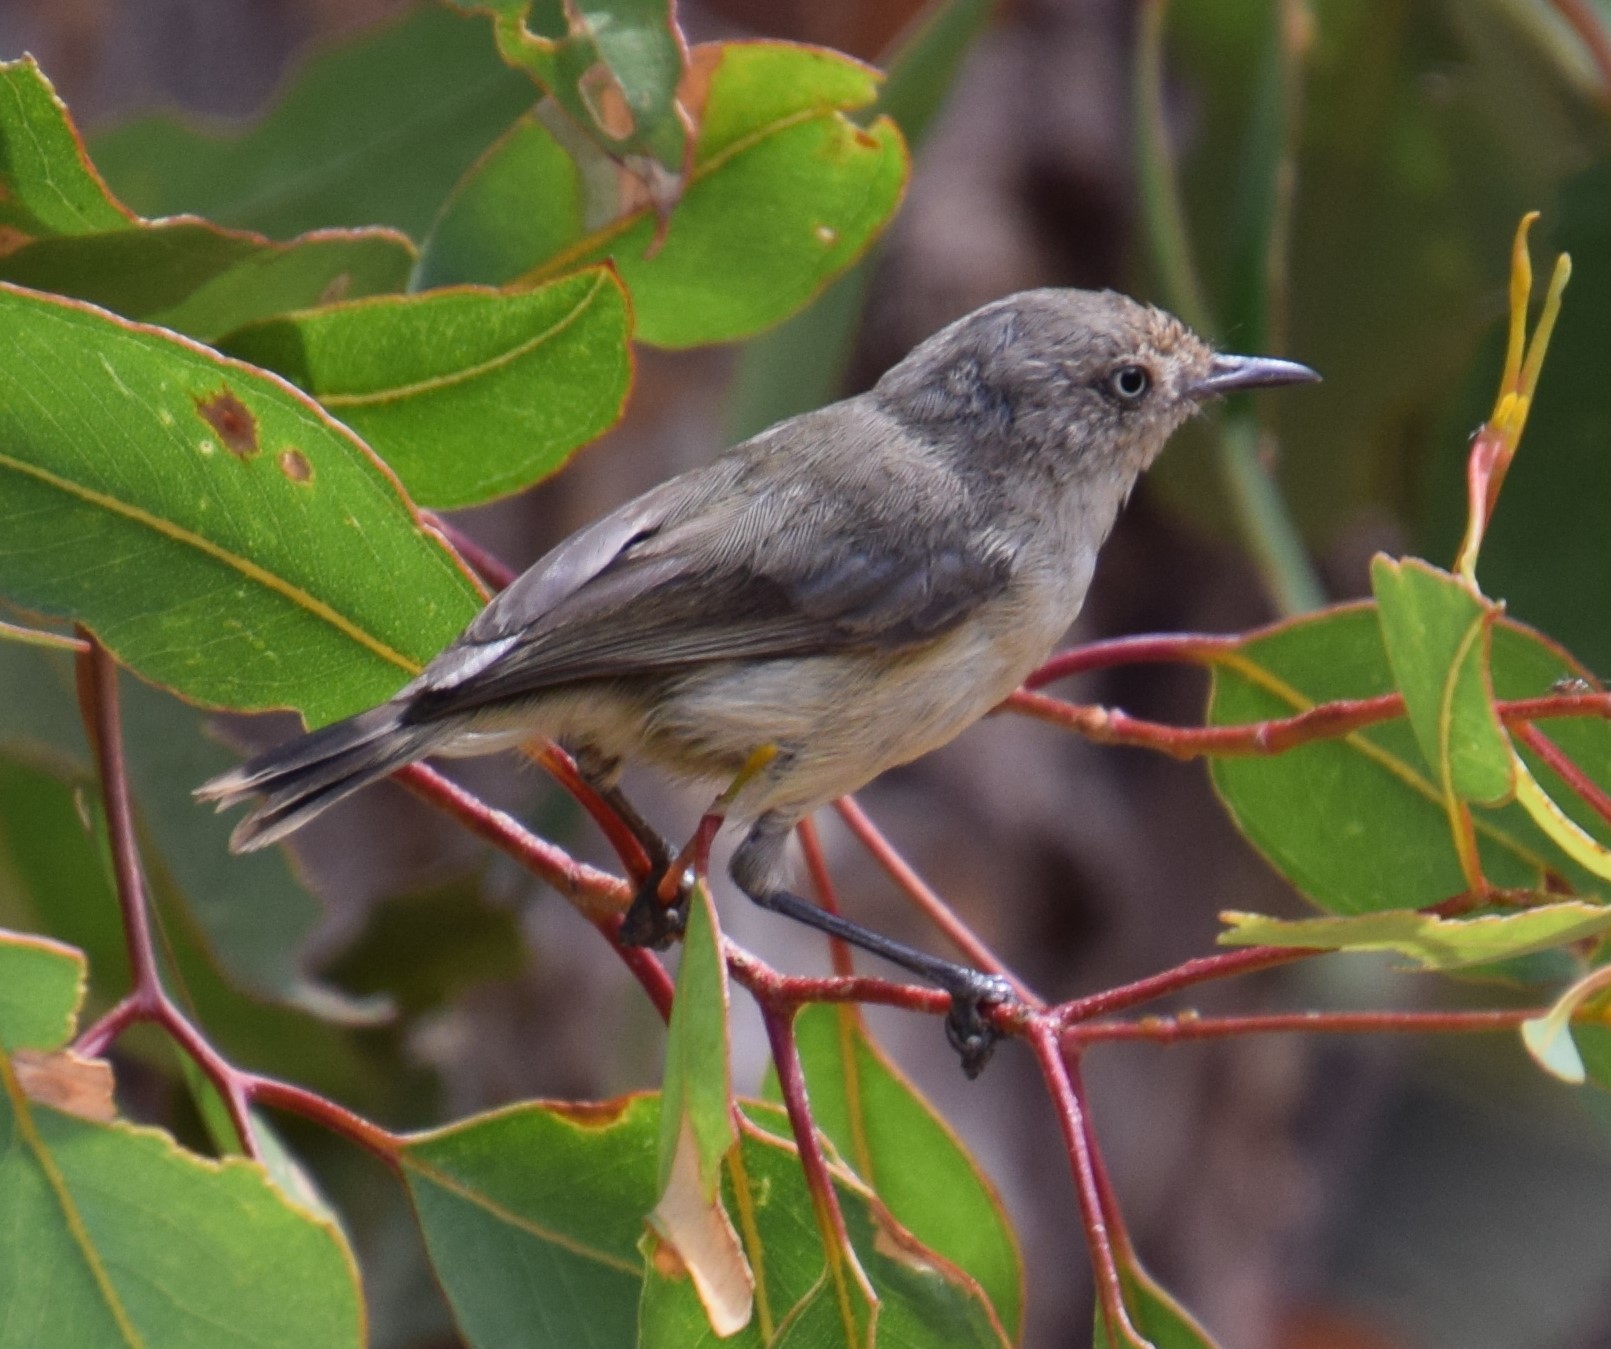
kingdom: Animalia
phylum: Chordata
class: Aves
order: Passeriformes
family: Acanthizidae
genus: Acanthiza
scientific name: Acanthiza inornata
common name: Western thornbill
